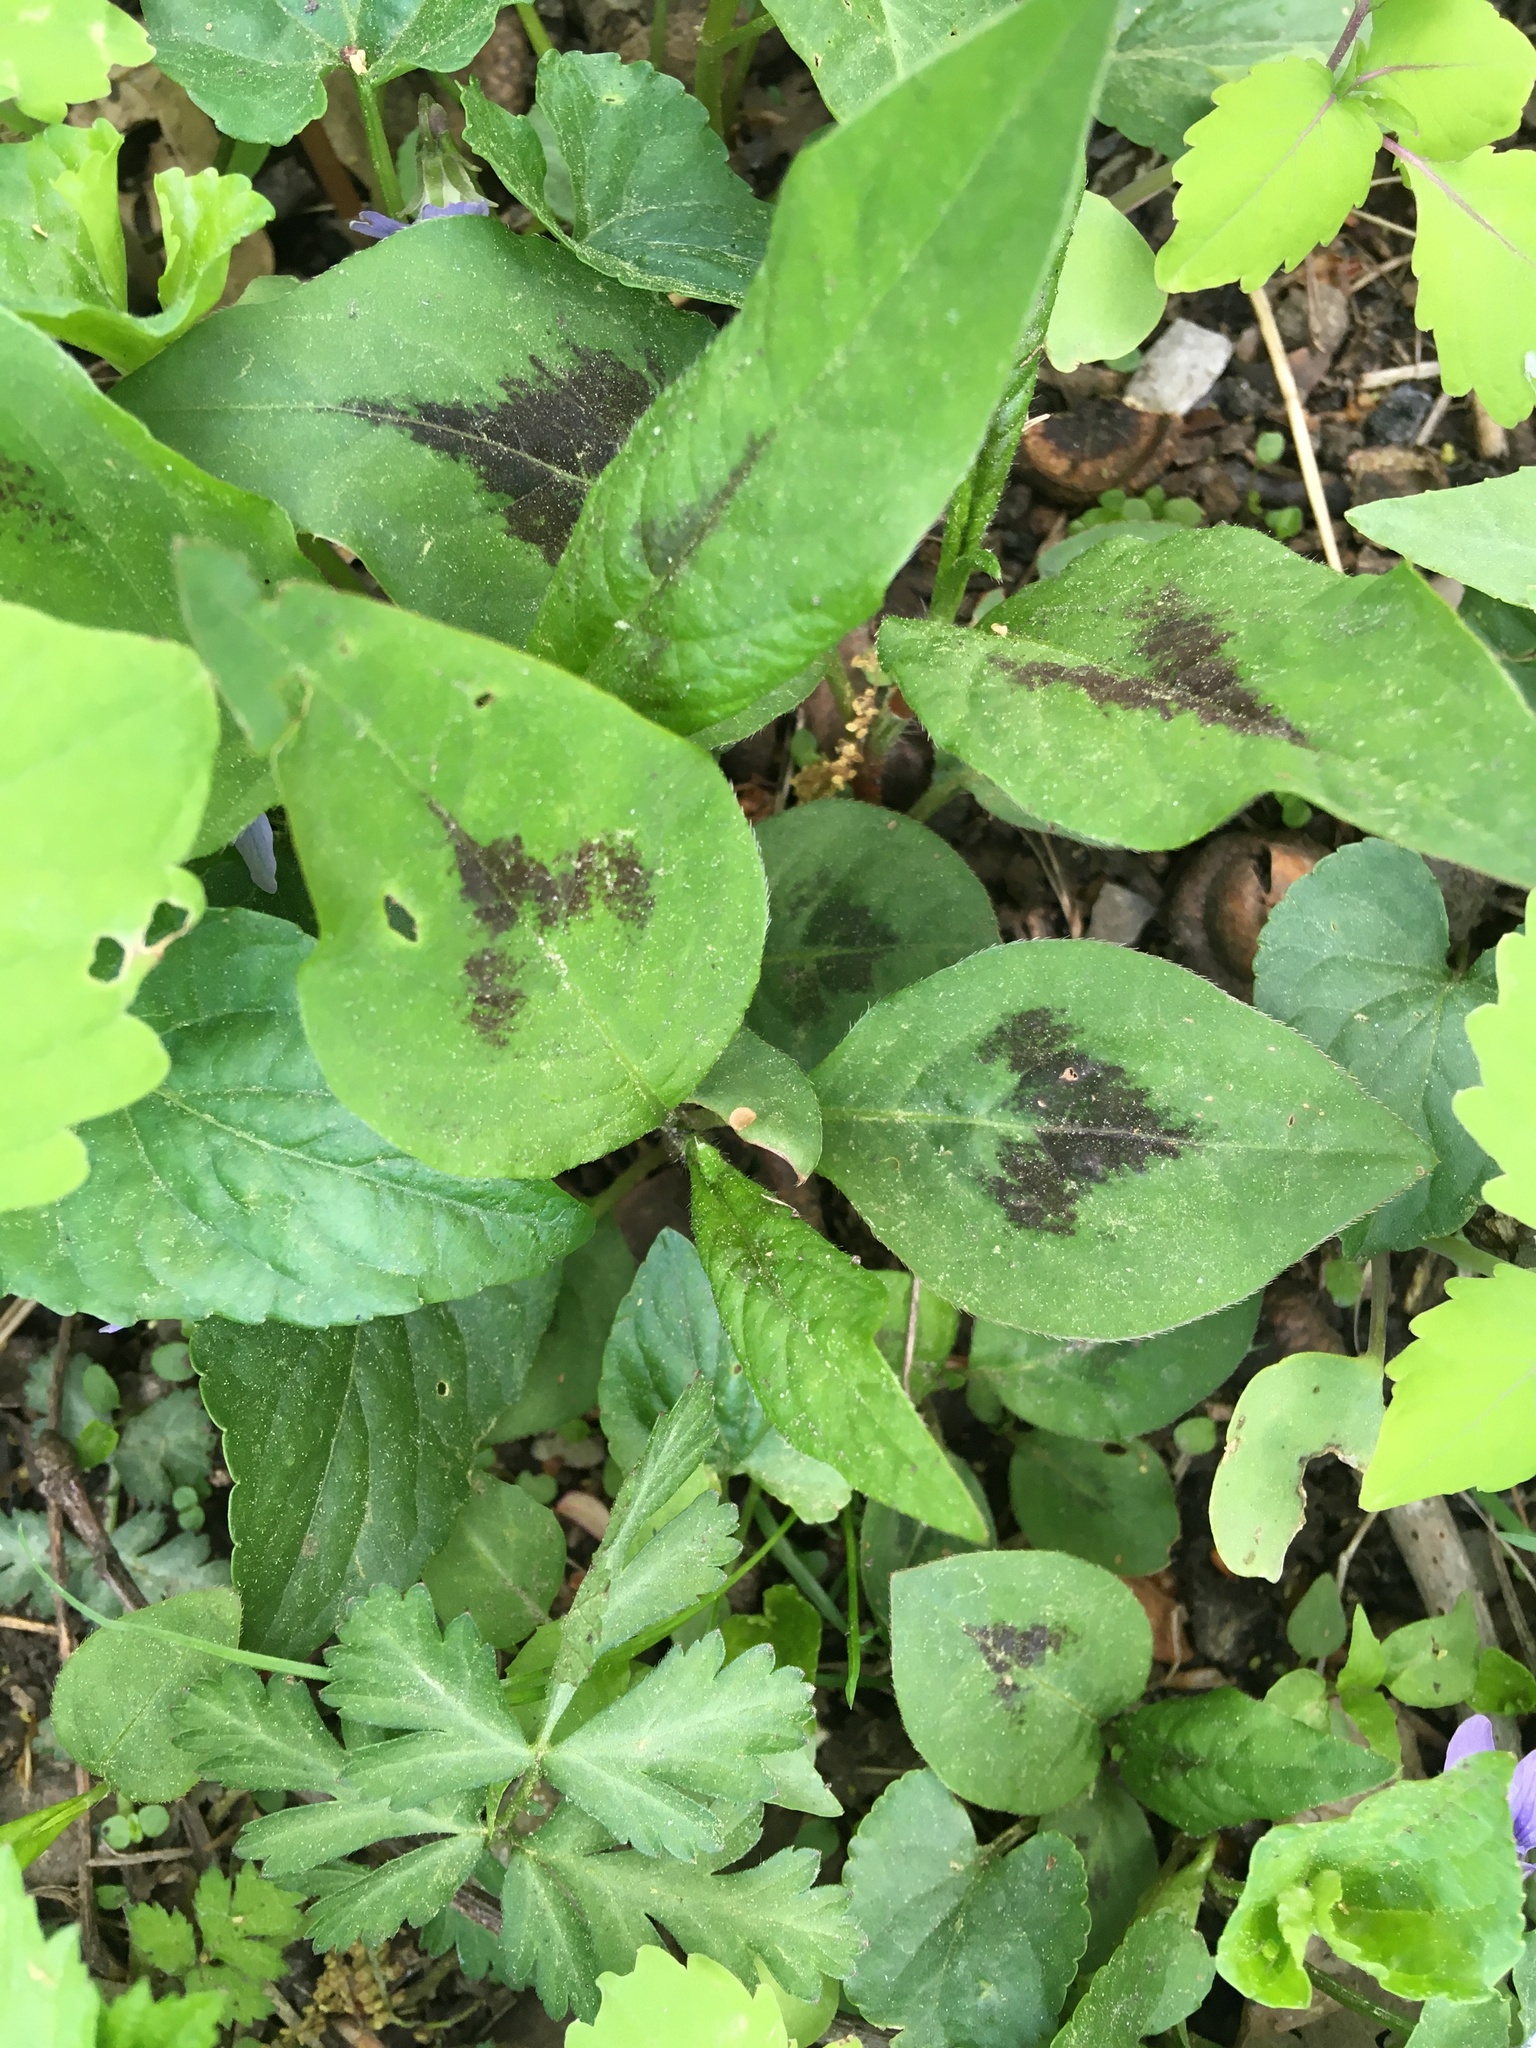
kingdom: Plantae
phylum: Tracheophyta
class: Magnoliopsida
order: Caryophyllales
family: Polygonaceae
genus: Persicaria
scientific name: Persicaria virginiana
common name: Jumpseed
